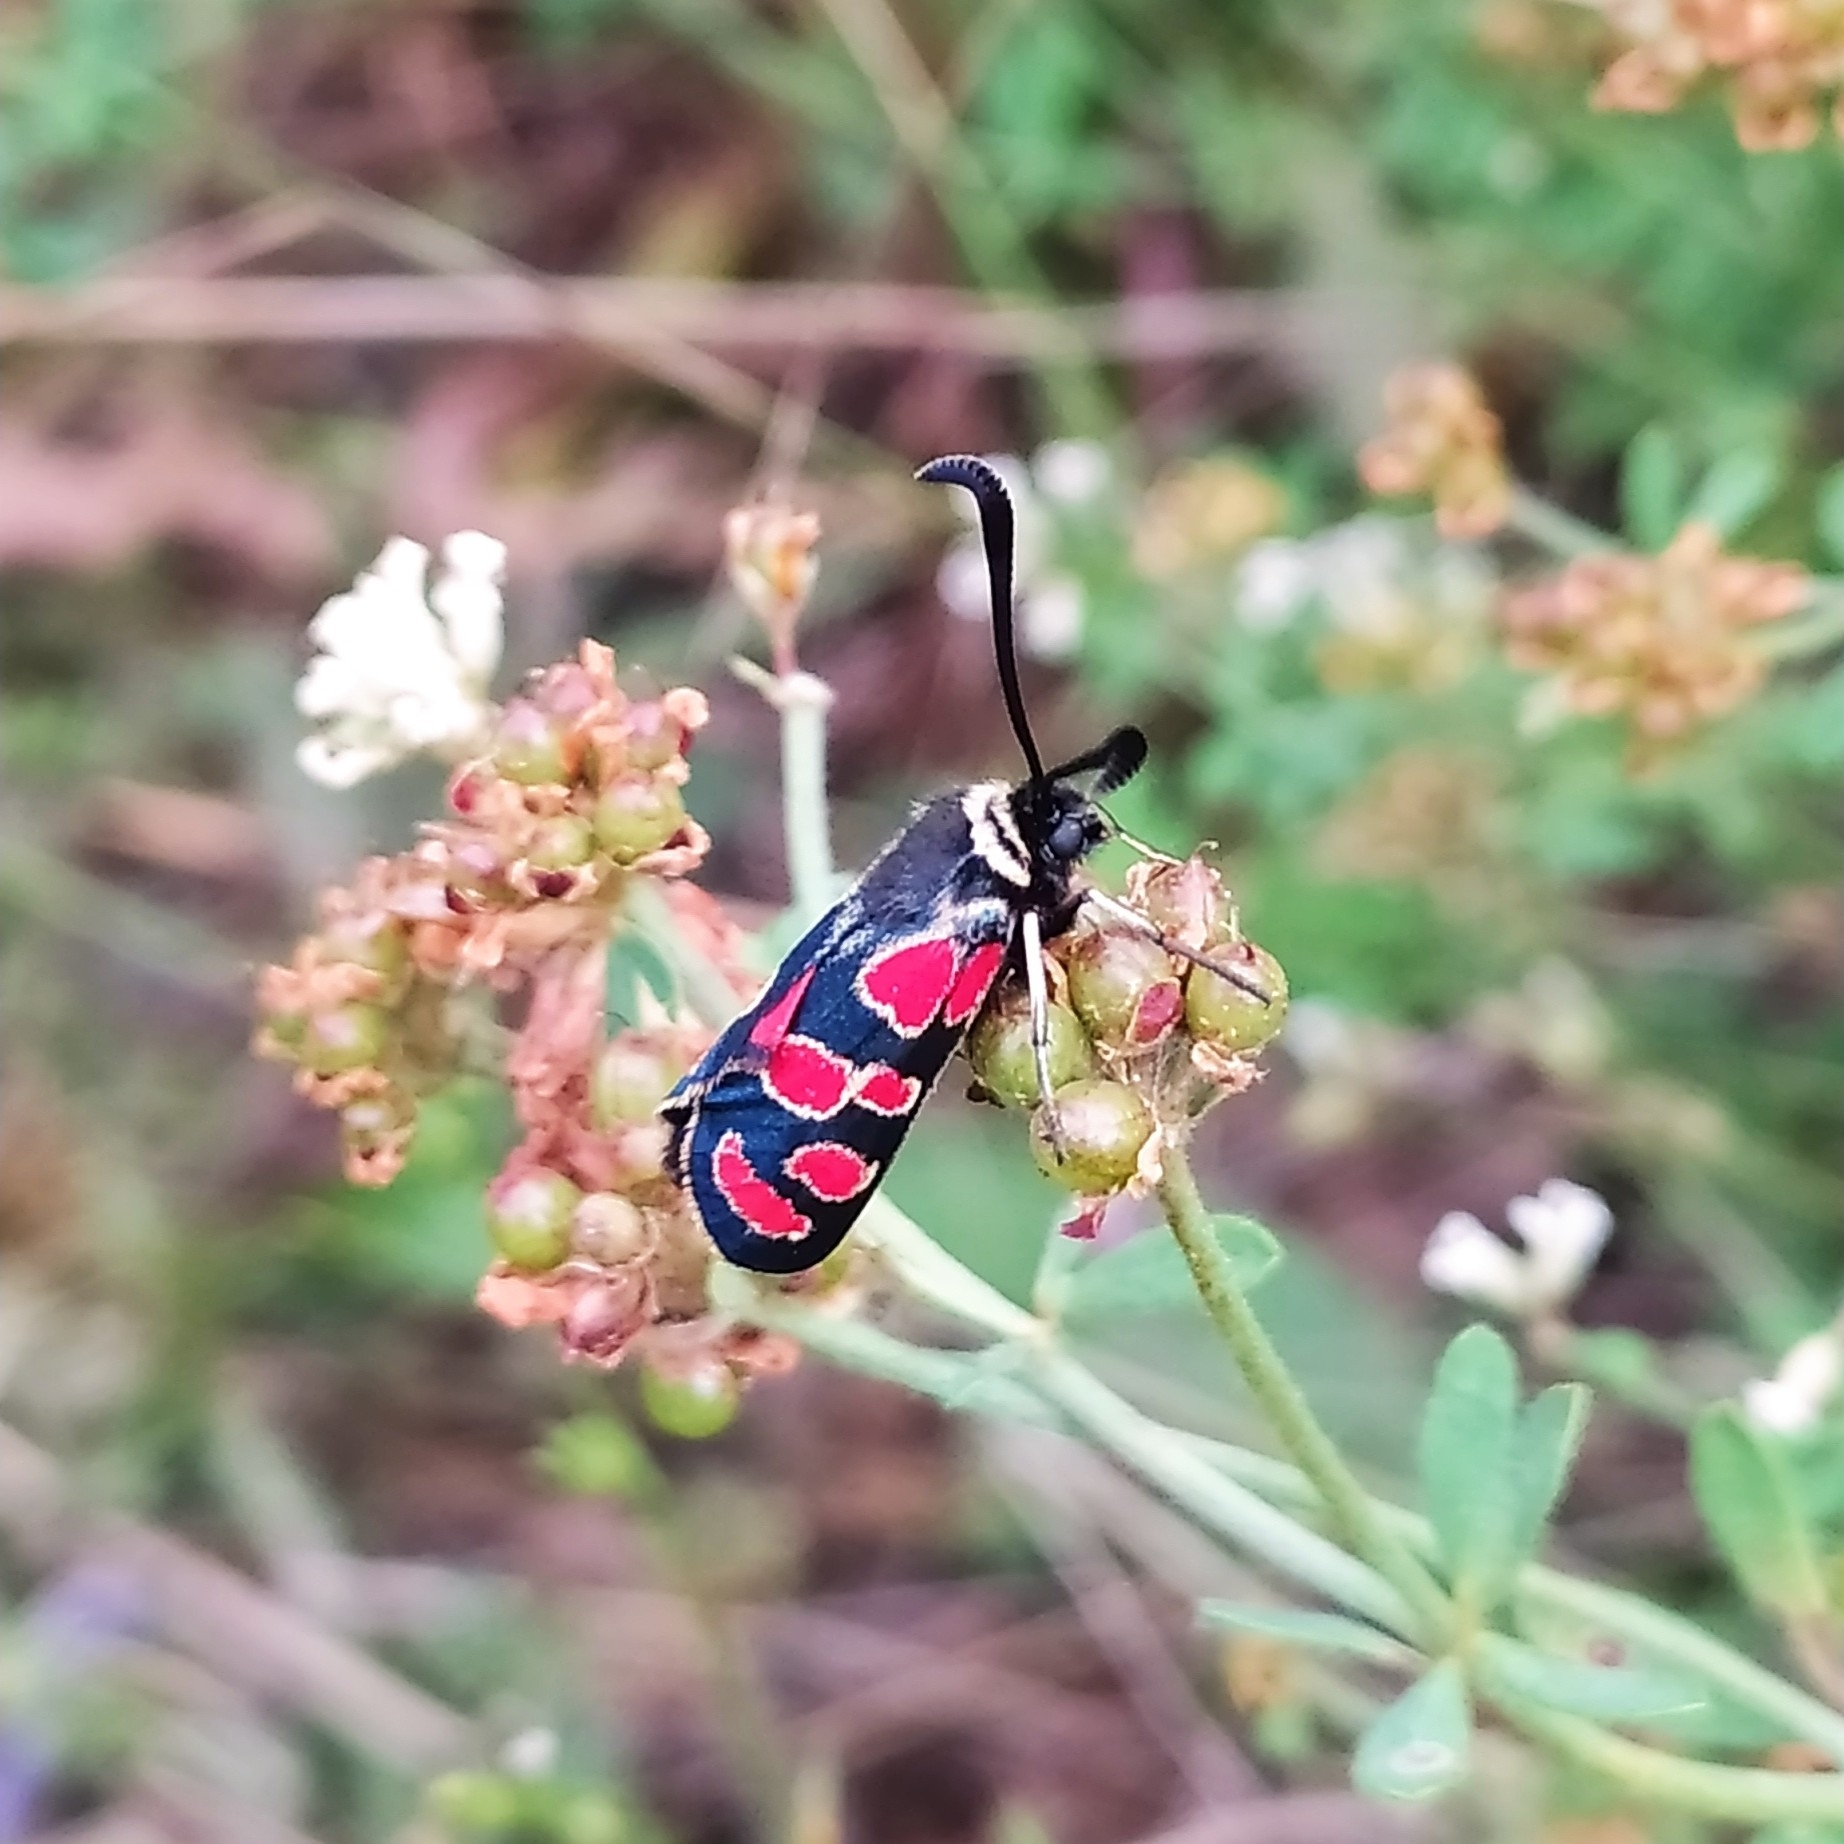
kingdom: Animalia
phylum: Arthropoda
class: Insecta
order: Lepidoptera
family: Zygaenidae
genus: Zygaena
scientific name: Zygaena carniolica
